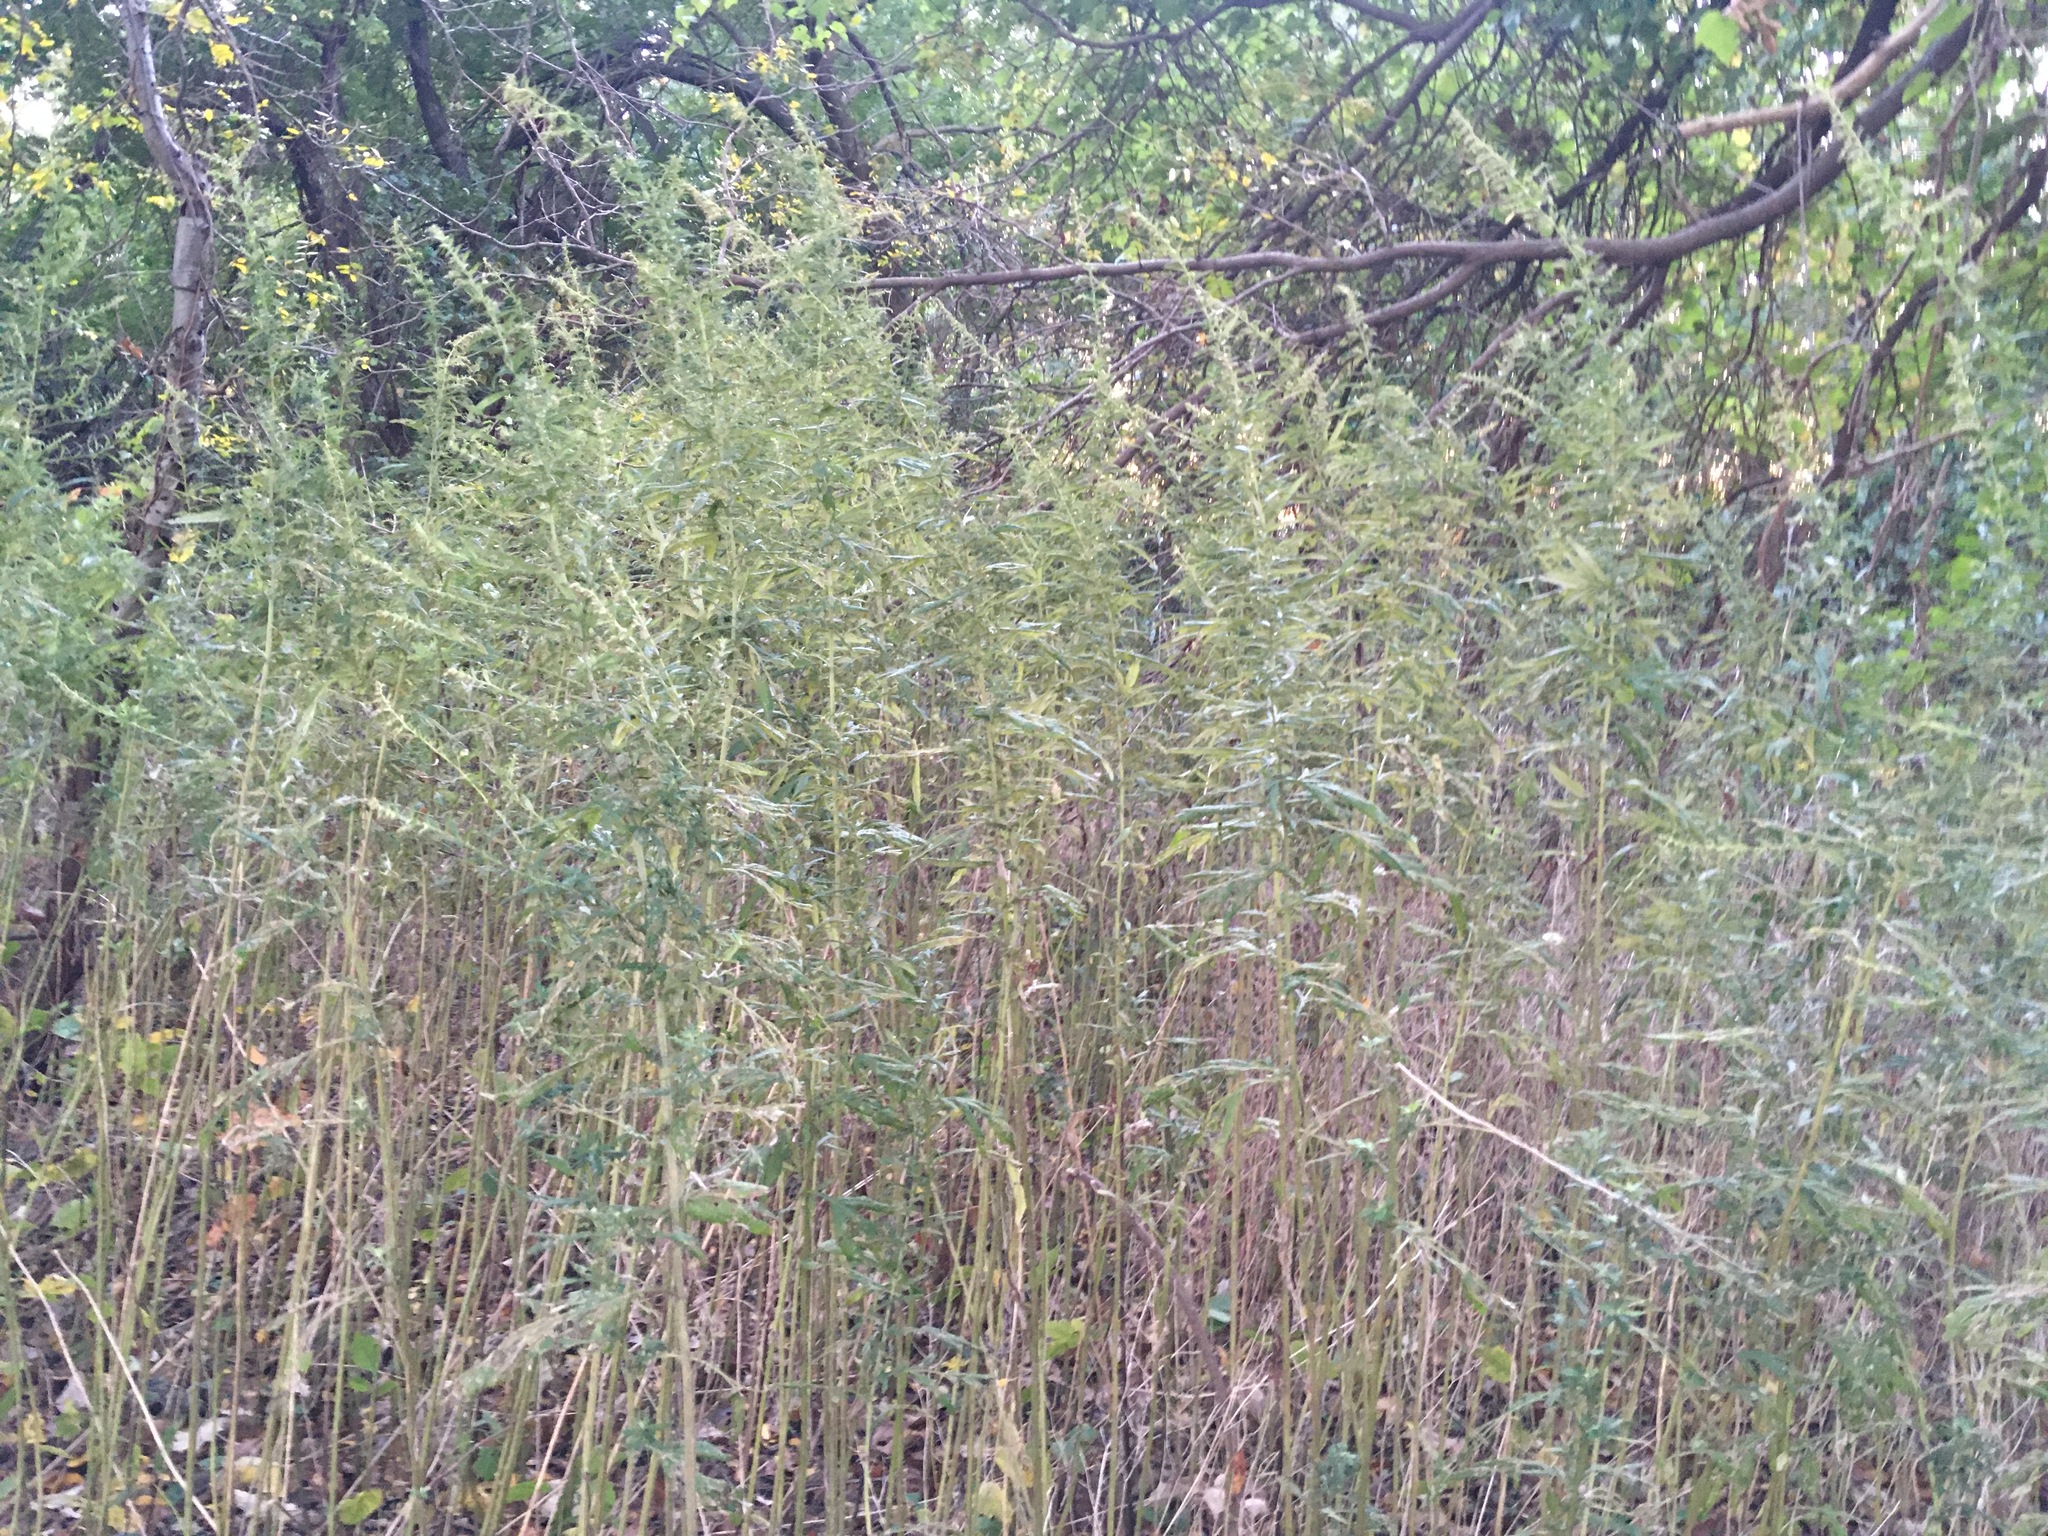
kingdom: Plantae
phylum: Tracheophyta
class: Magnoliopsida
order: Asterales
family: Asteraceae
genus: Artemisia
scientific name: Artemisia vulgaris
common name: Mugwort
